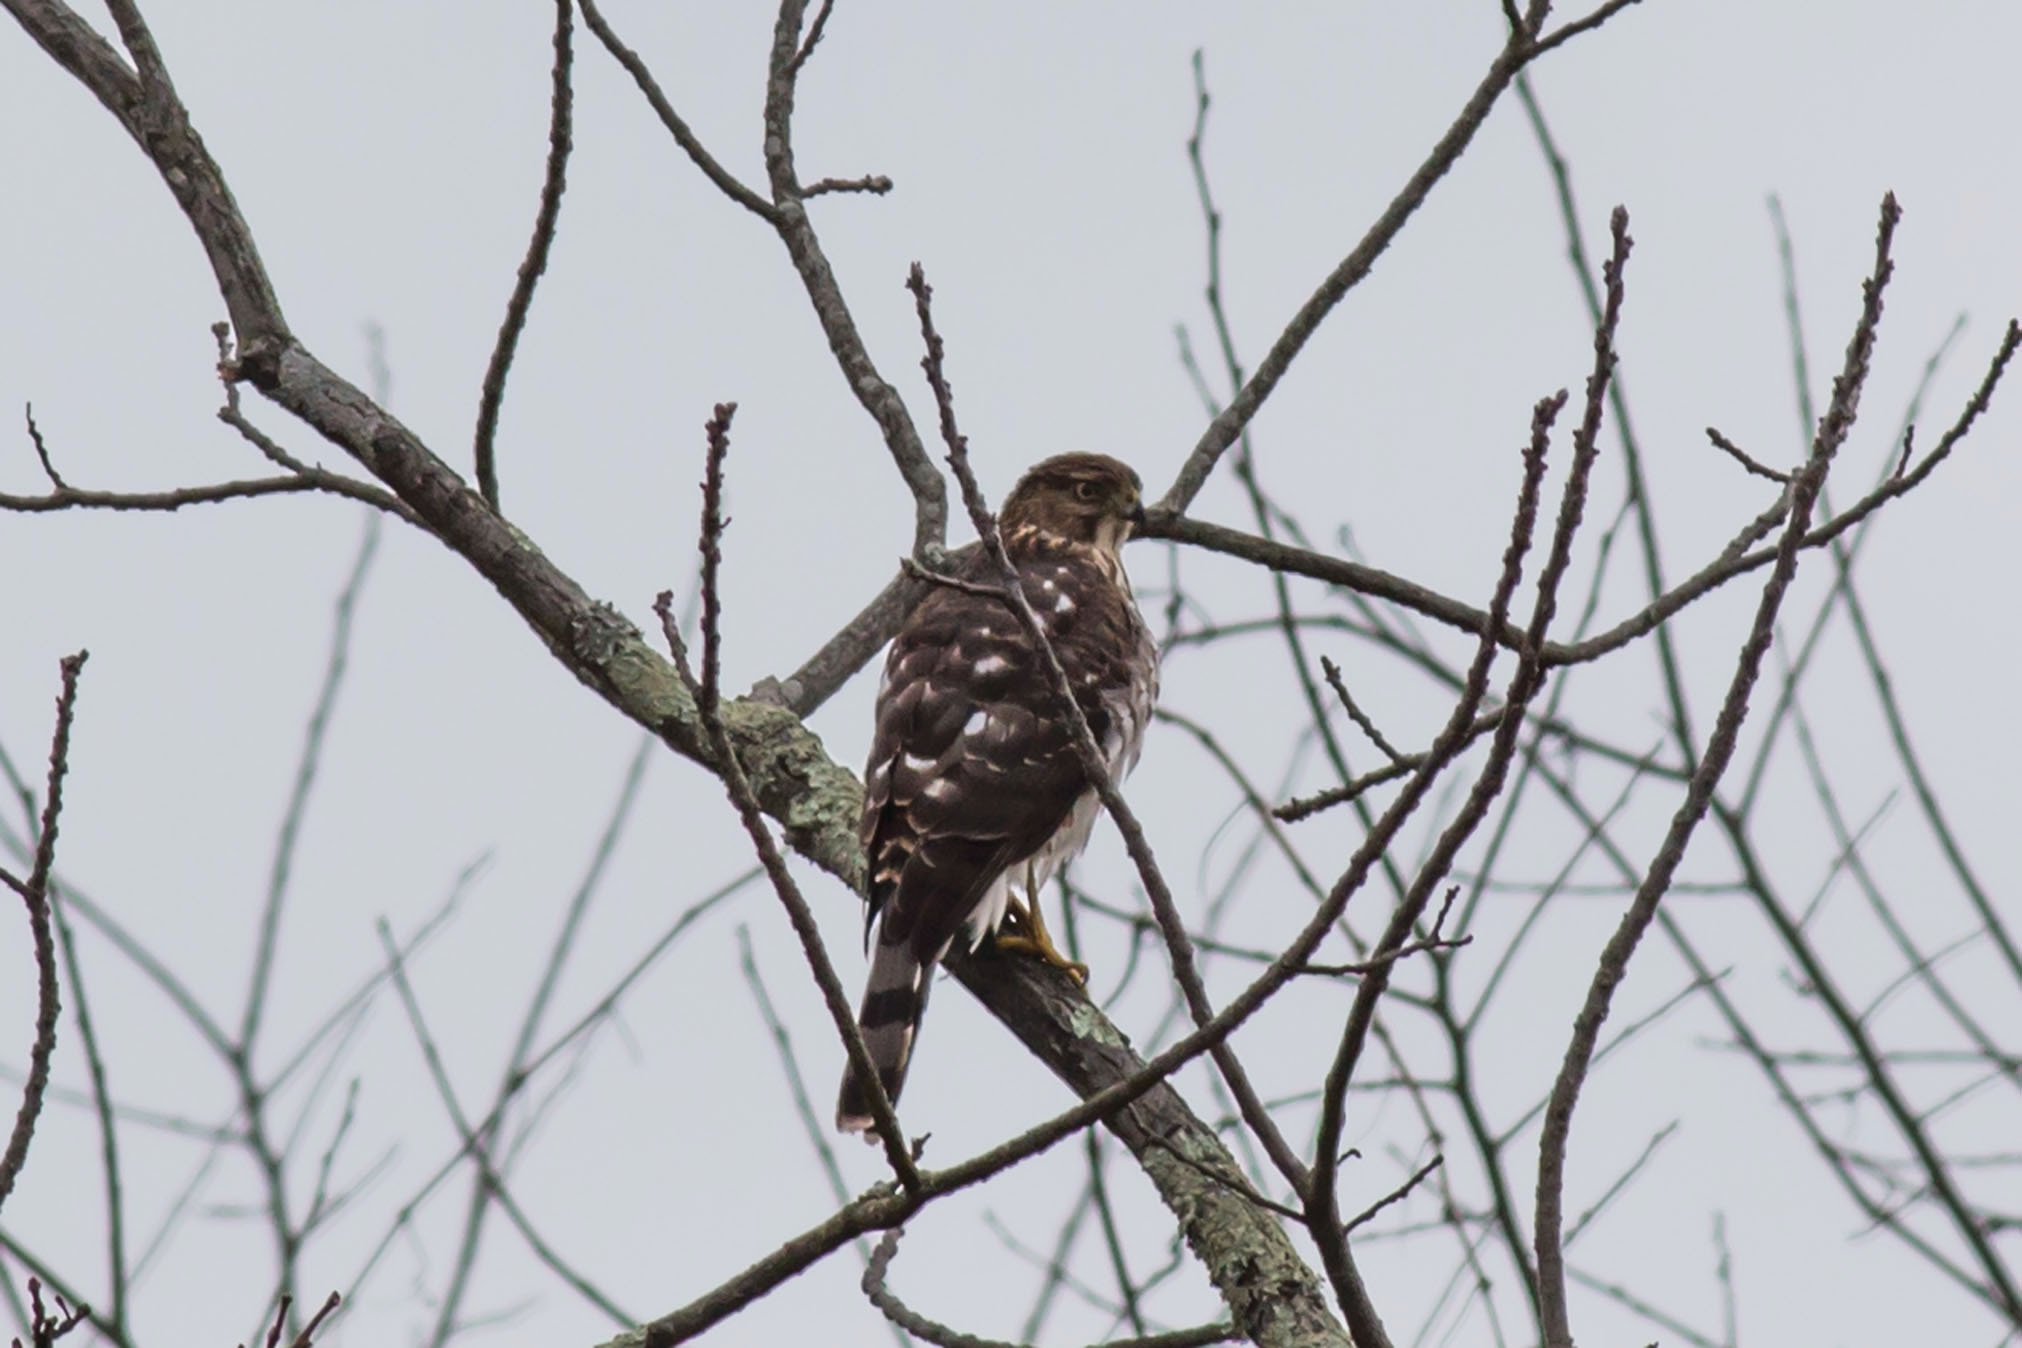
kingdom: Animalia
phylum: Chordata
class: Aves
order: Accipitriformes
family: Accipitridae
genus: Accipiter
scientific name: Accipiter cooperii
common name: Cooper's hawk
